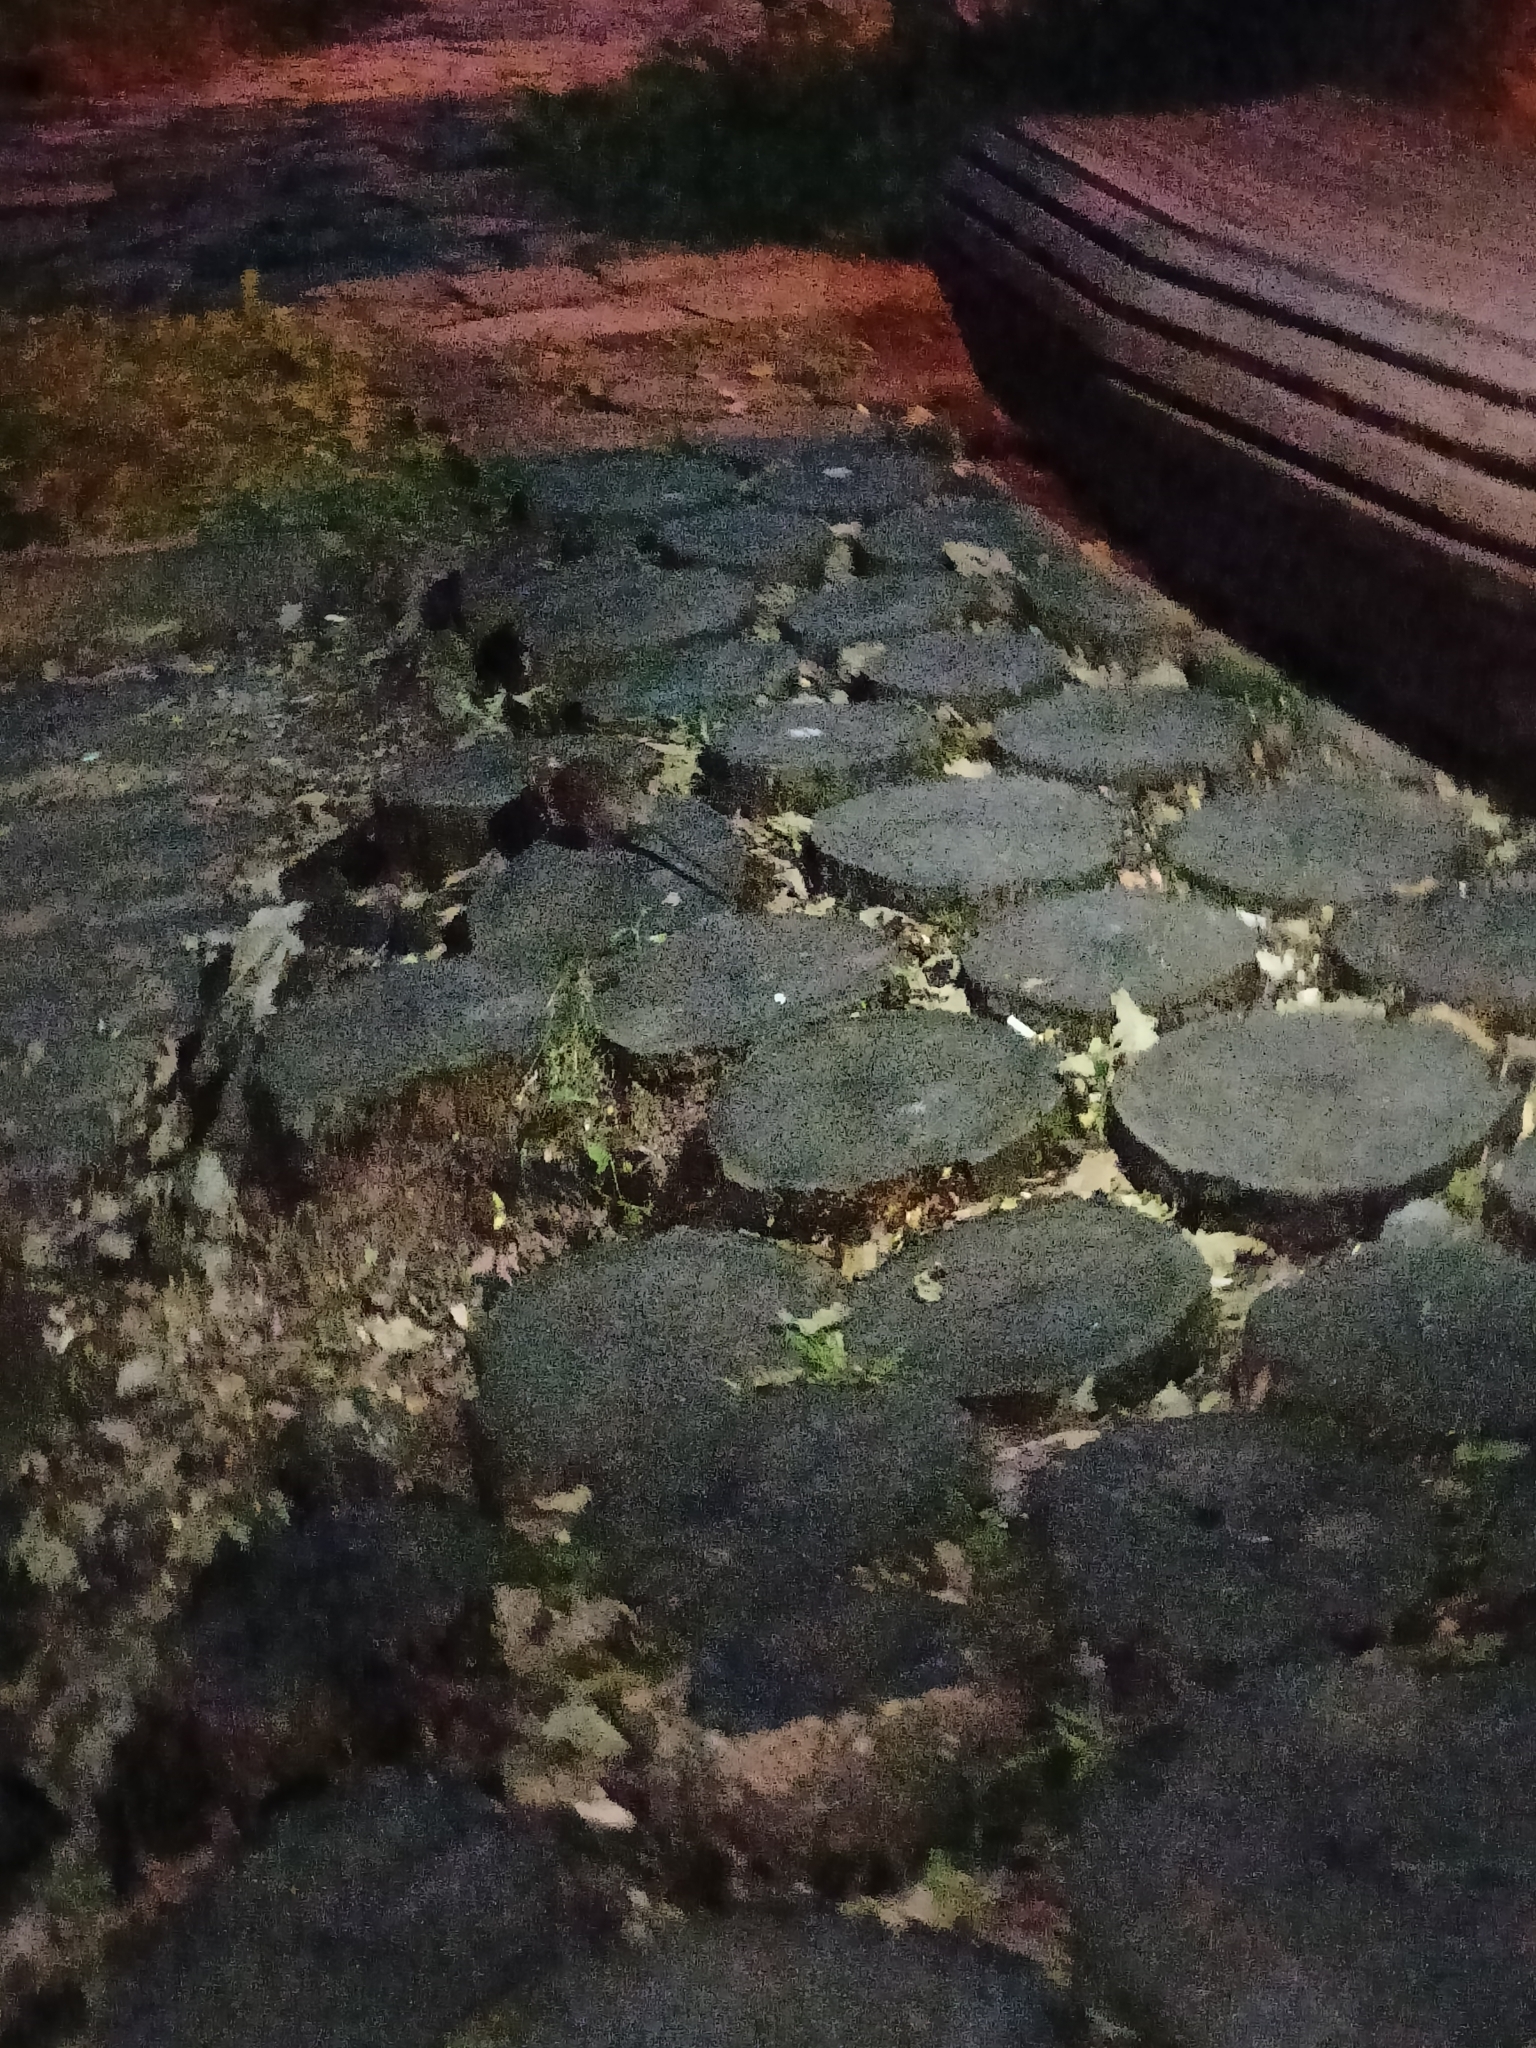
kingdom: Animalia
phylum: Chordata
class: Mammalia
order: Rodentia
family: Muridae
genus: Rattus
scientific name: Rattus norvegicus
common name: Brown rat
